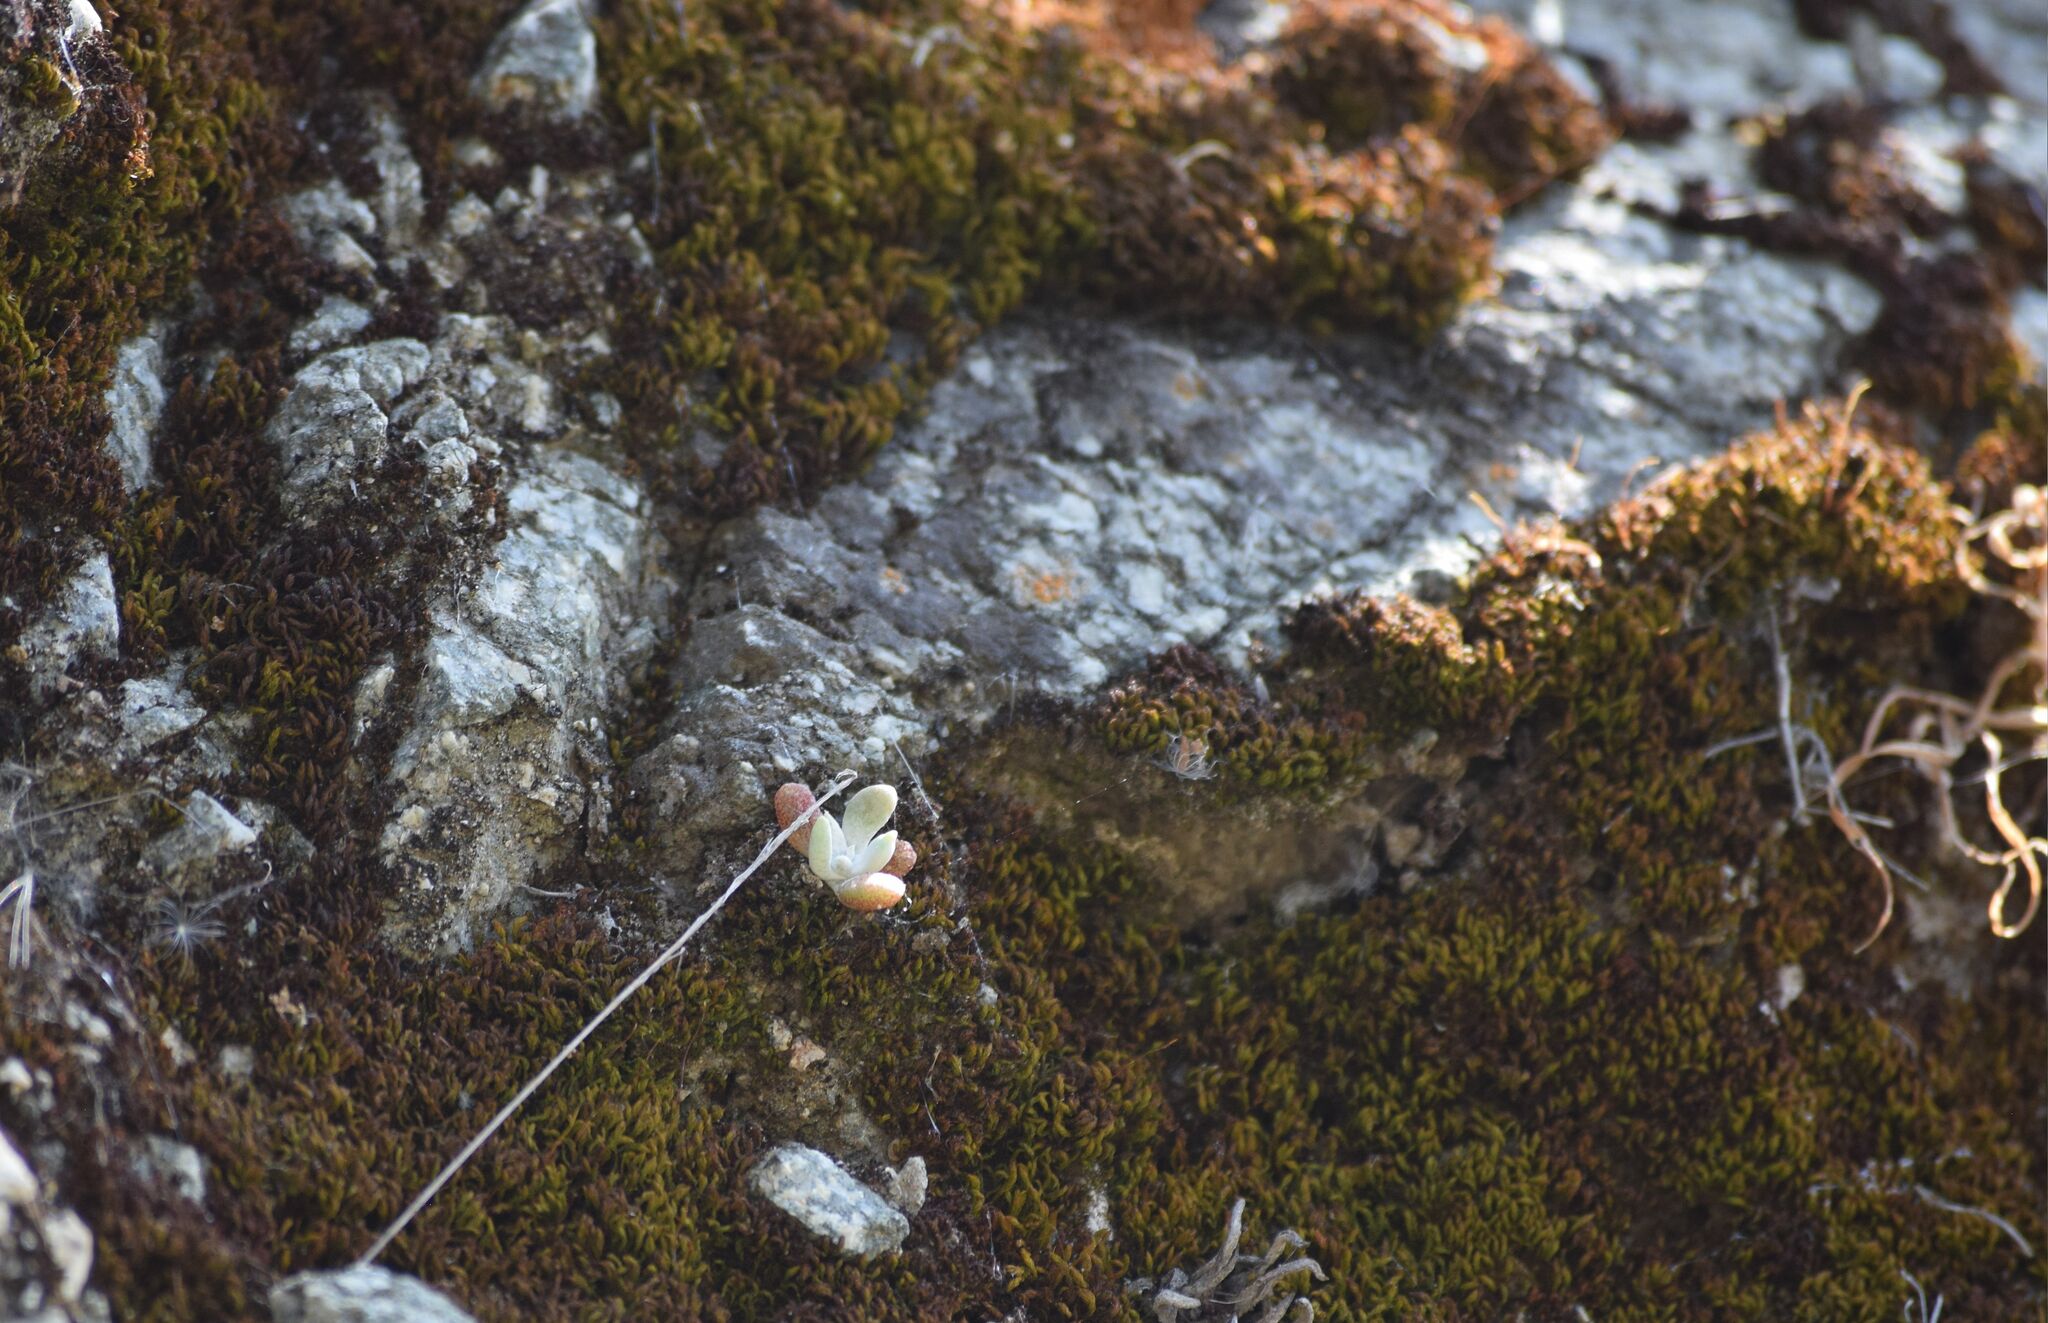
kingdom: Plantae
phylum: Tracheophyta
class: Magnoliopsida
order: Saxifragales
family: Crassulaceae
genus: Dudleya
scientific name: Dudleya densiflora
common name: San gabriel mountains dudleya
